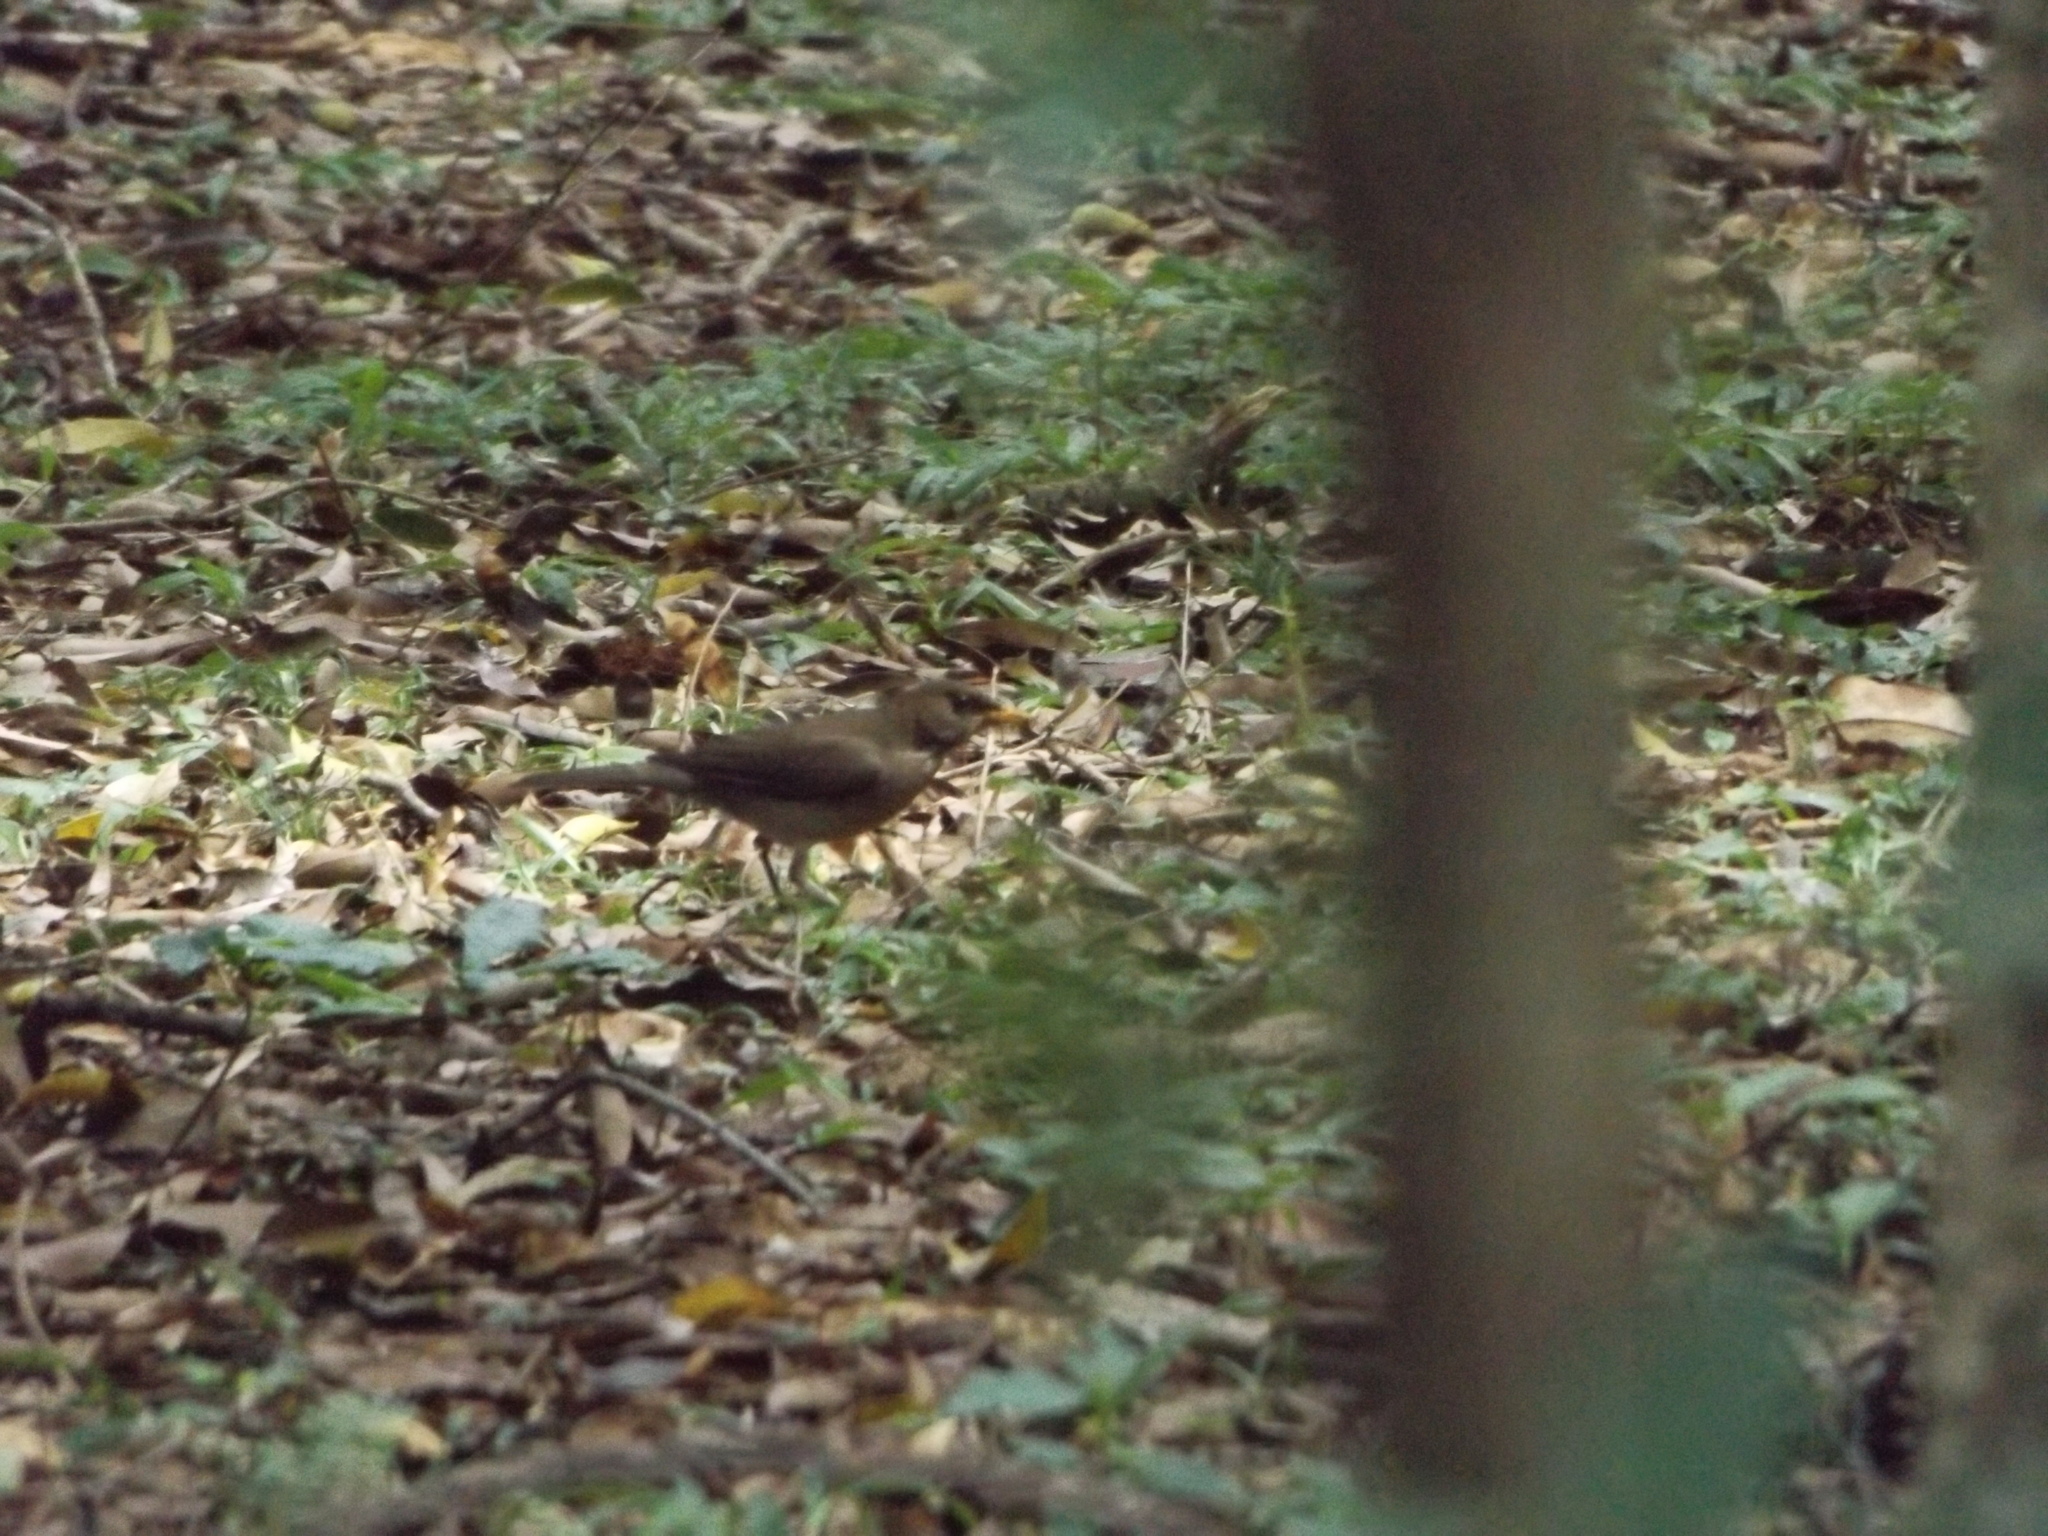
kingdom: Animalia
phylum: Chordata
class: Aves
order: Passeriformes
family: Turdidae
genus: Turdus
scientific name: Turdus amaurochalinus
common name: Creamy-bellied thrush
